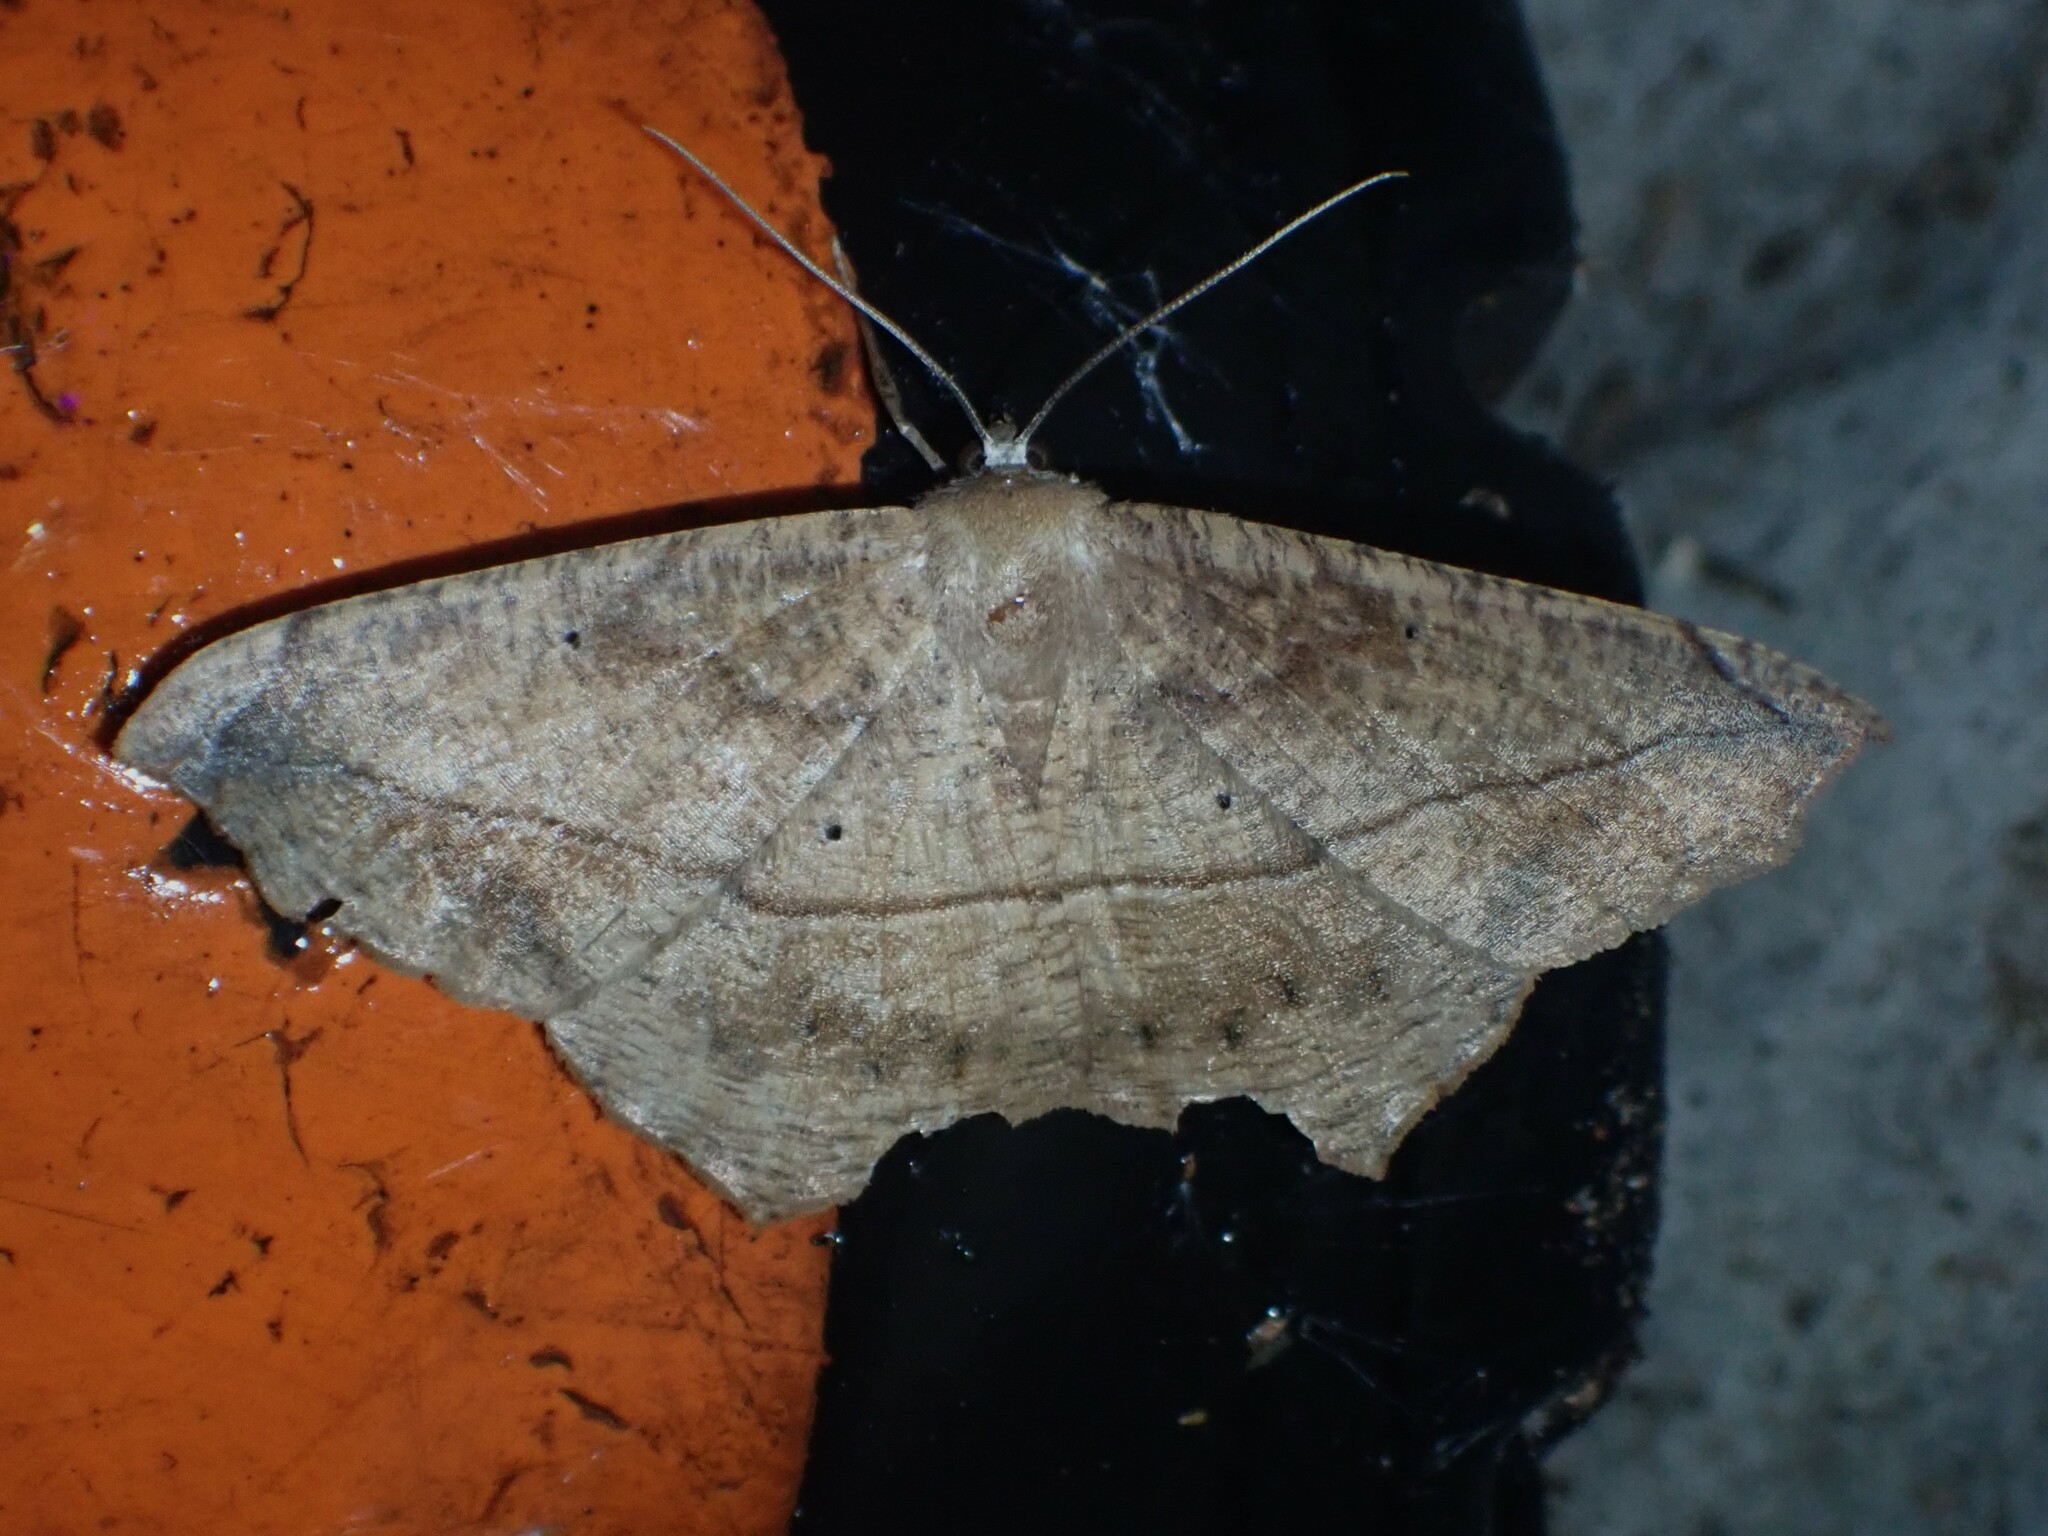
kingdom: Animalia
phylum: Arthropoda
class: Insecta
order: Lepidoptera
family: Geometridae
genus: Prochoerodes
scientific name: Prochoerodes lineola
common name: Large maple spanworm
